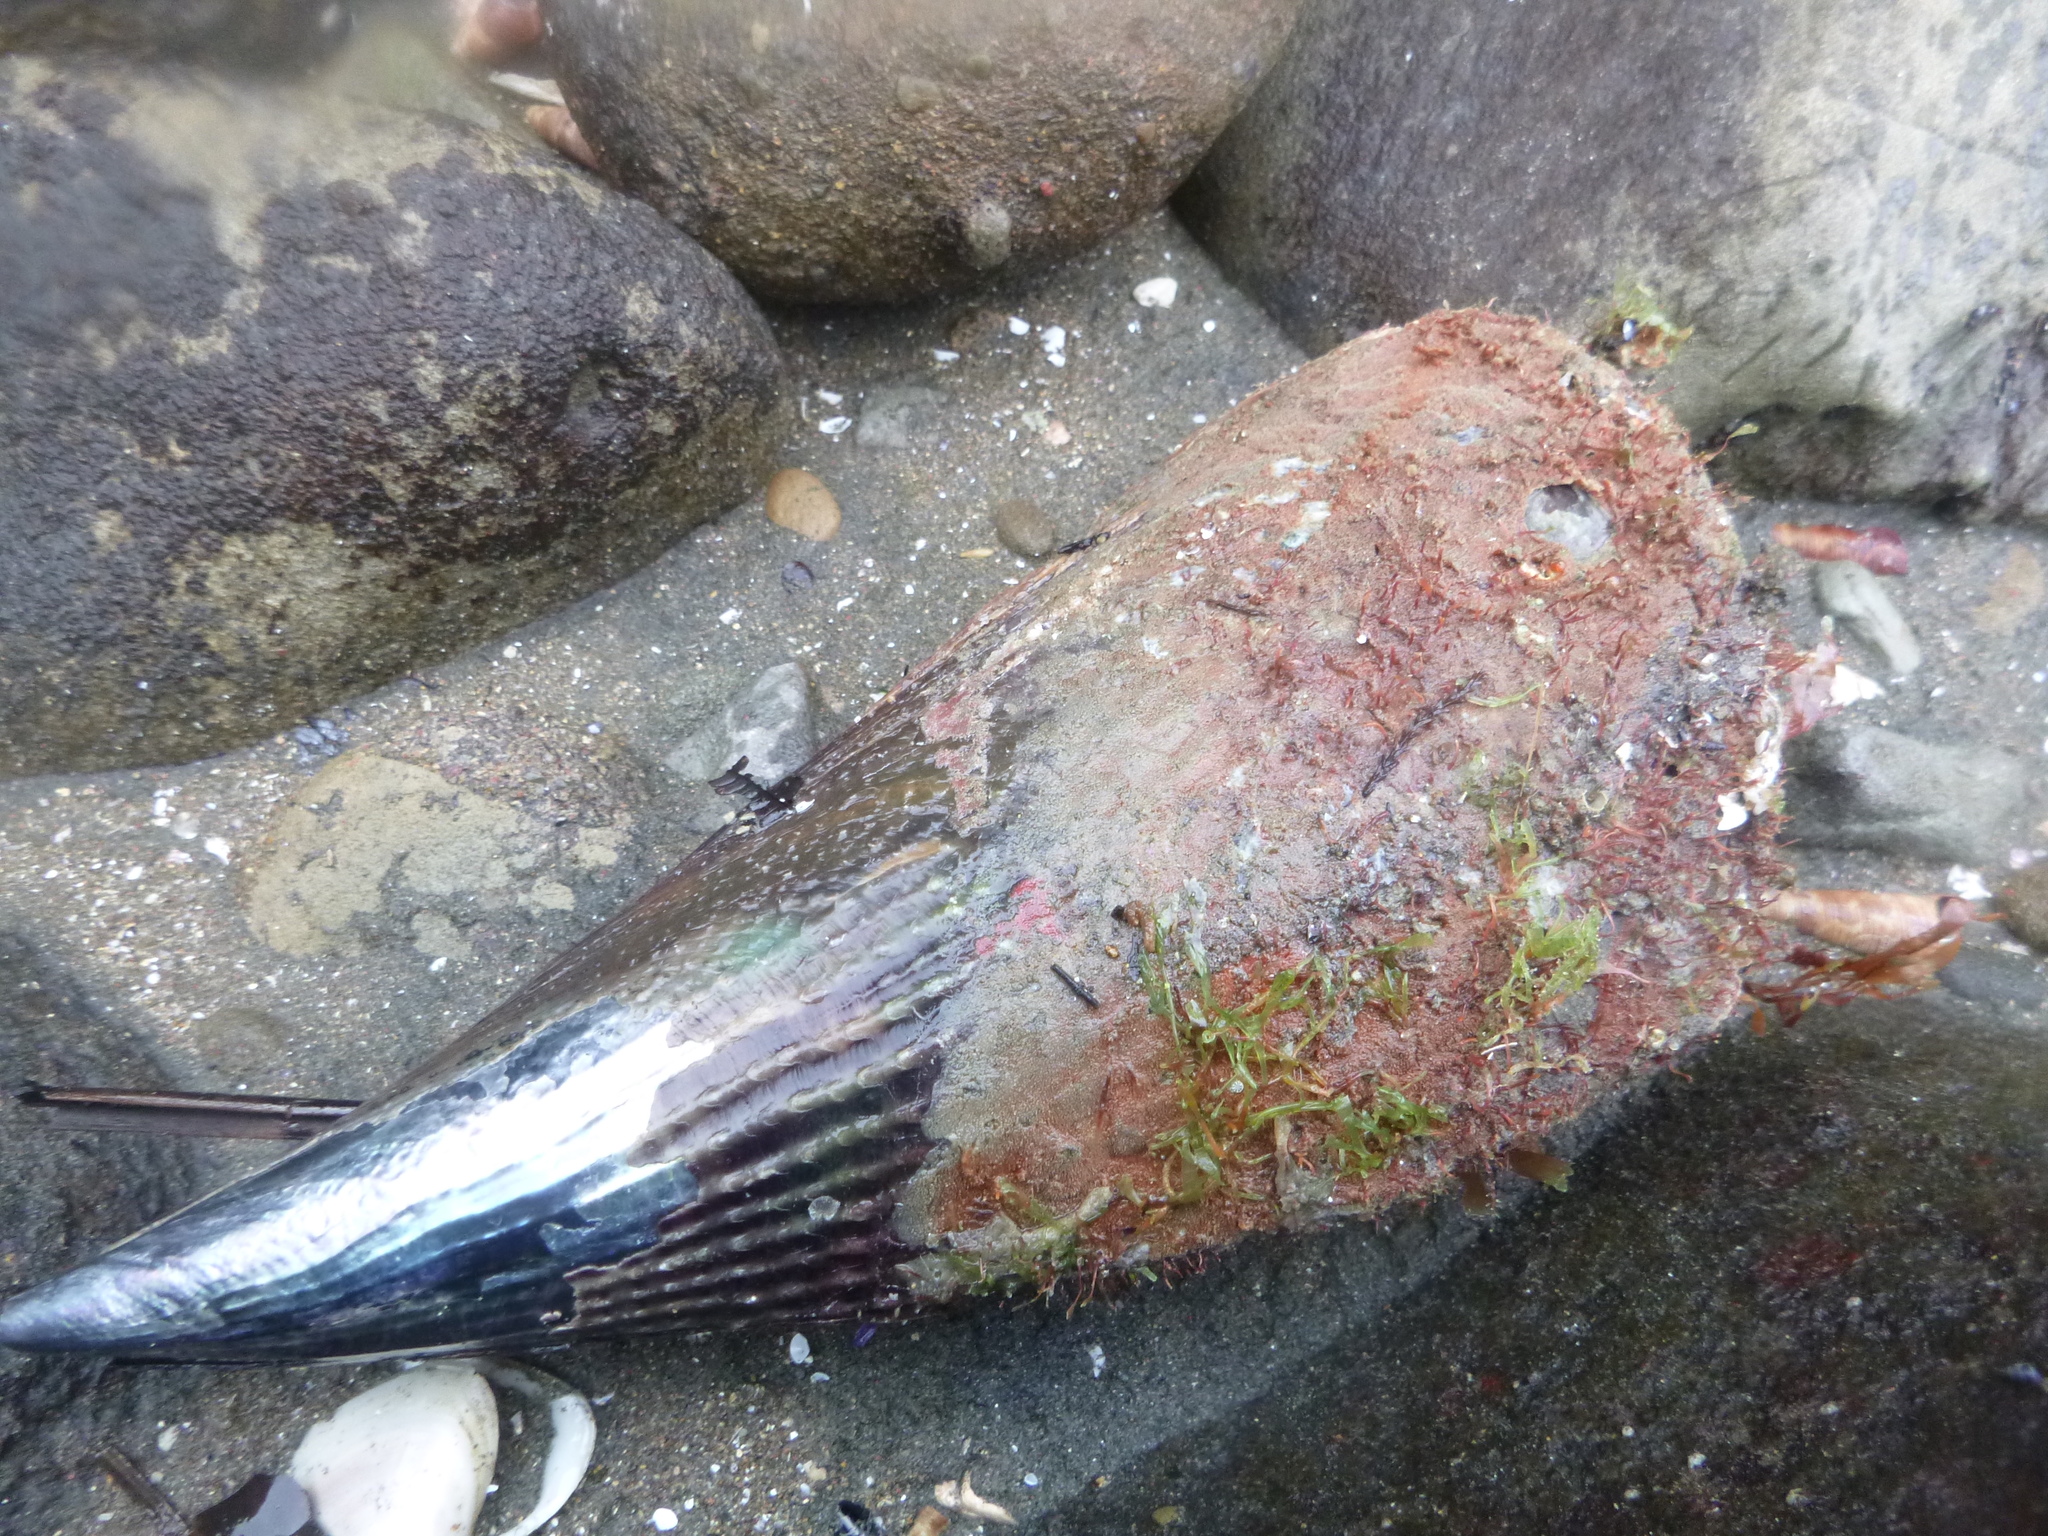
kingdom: Animalia
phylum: Mollusca
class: Bivalvia
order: Ostreida
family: Pinnidae
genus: Atrina
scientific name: Atrina zelandica
